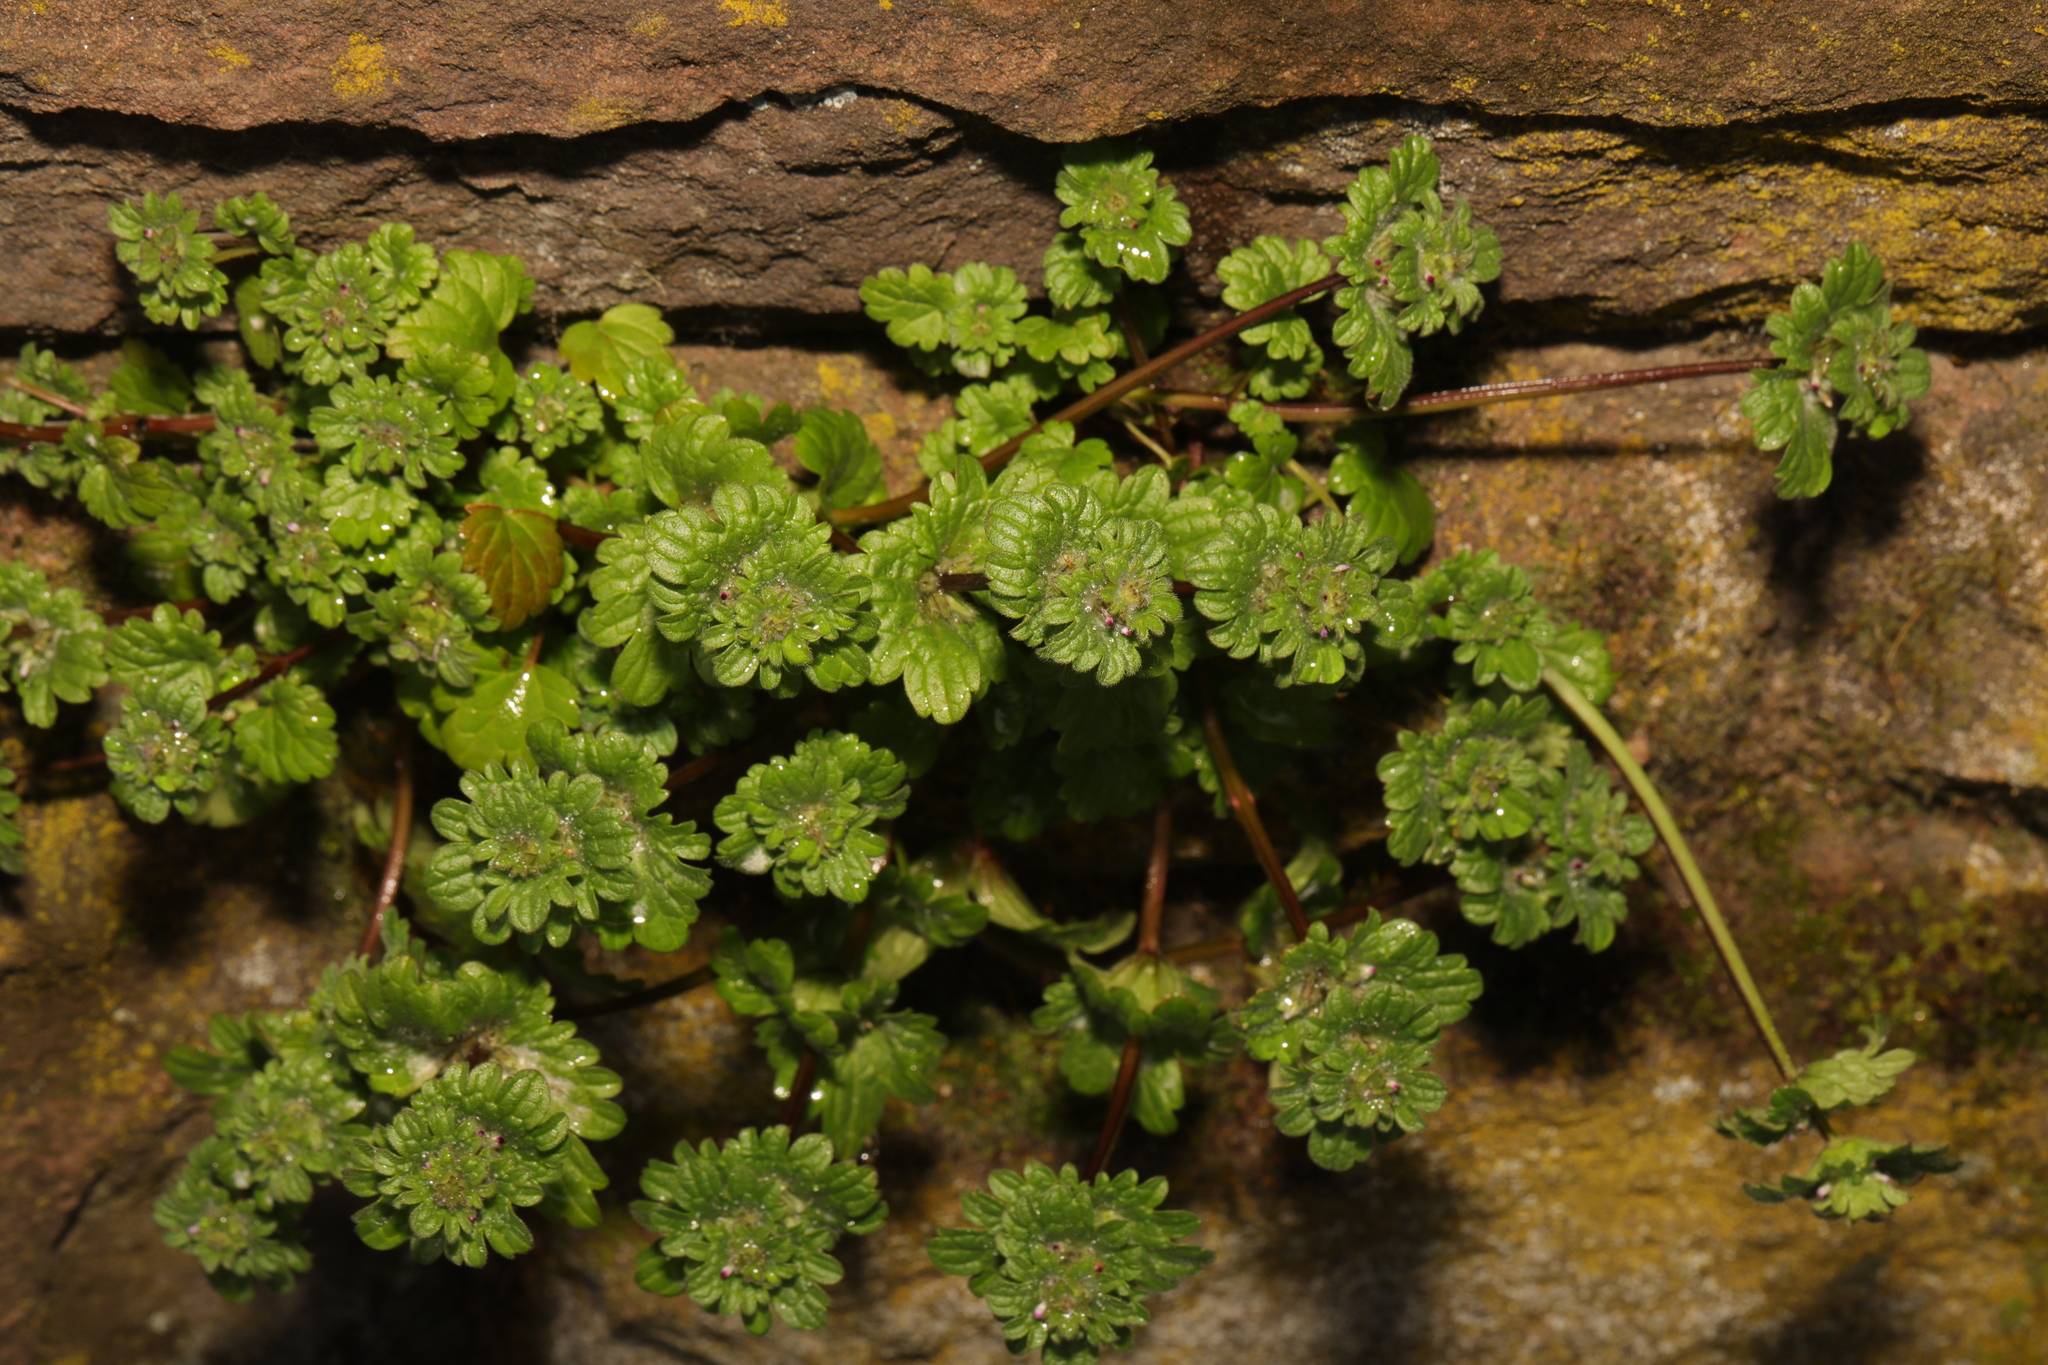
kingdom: Plantae
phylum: Tracheophyta
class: Magnoliopsida
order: Lamiales
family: Lamiaceae
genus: Lamium
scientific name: Lamium amplexicaule
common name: Henbit dead-nettle
